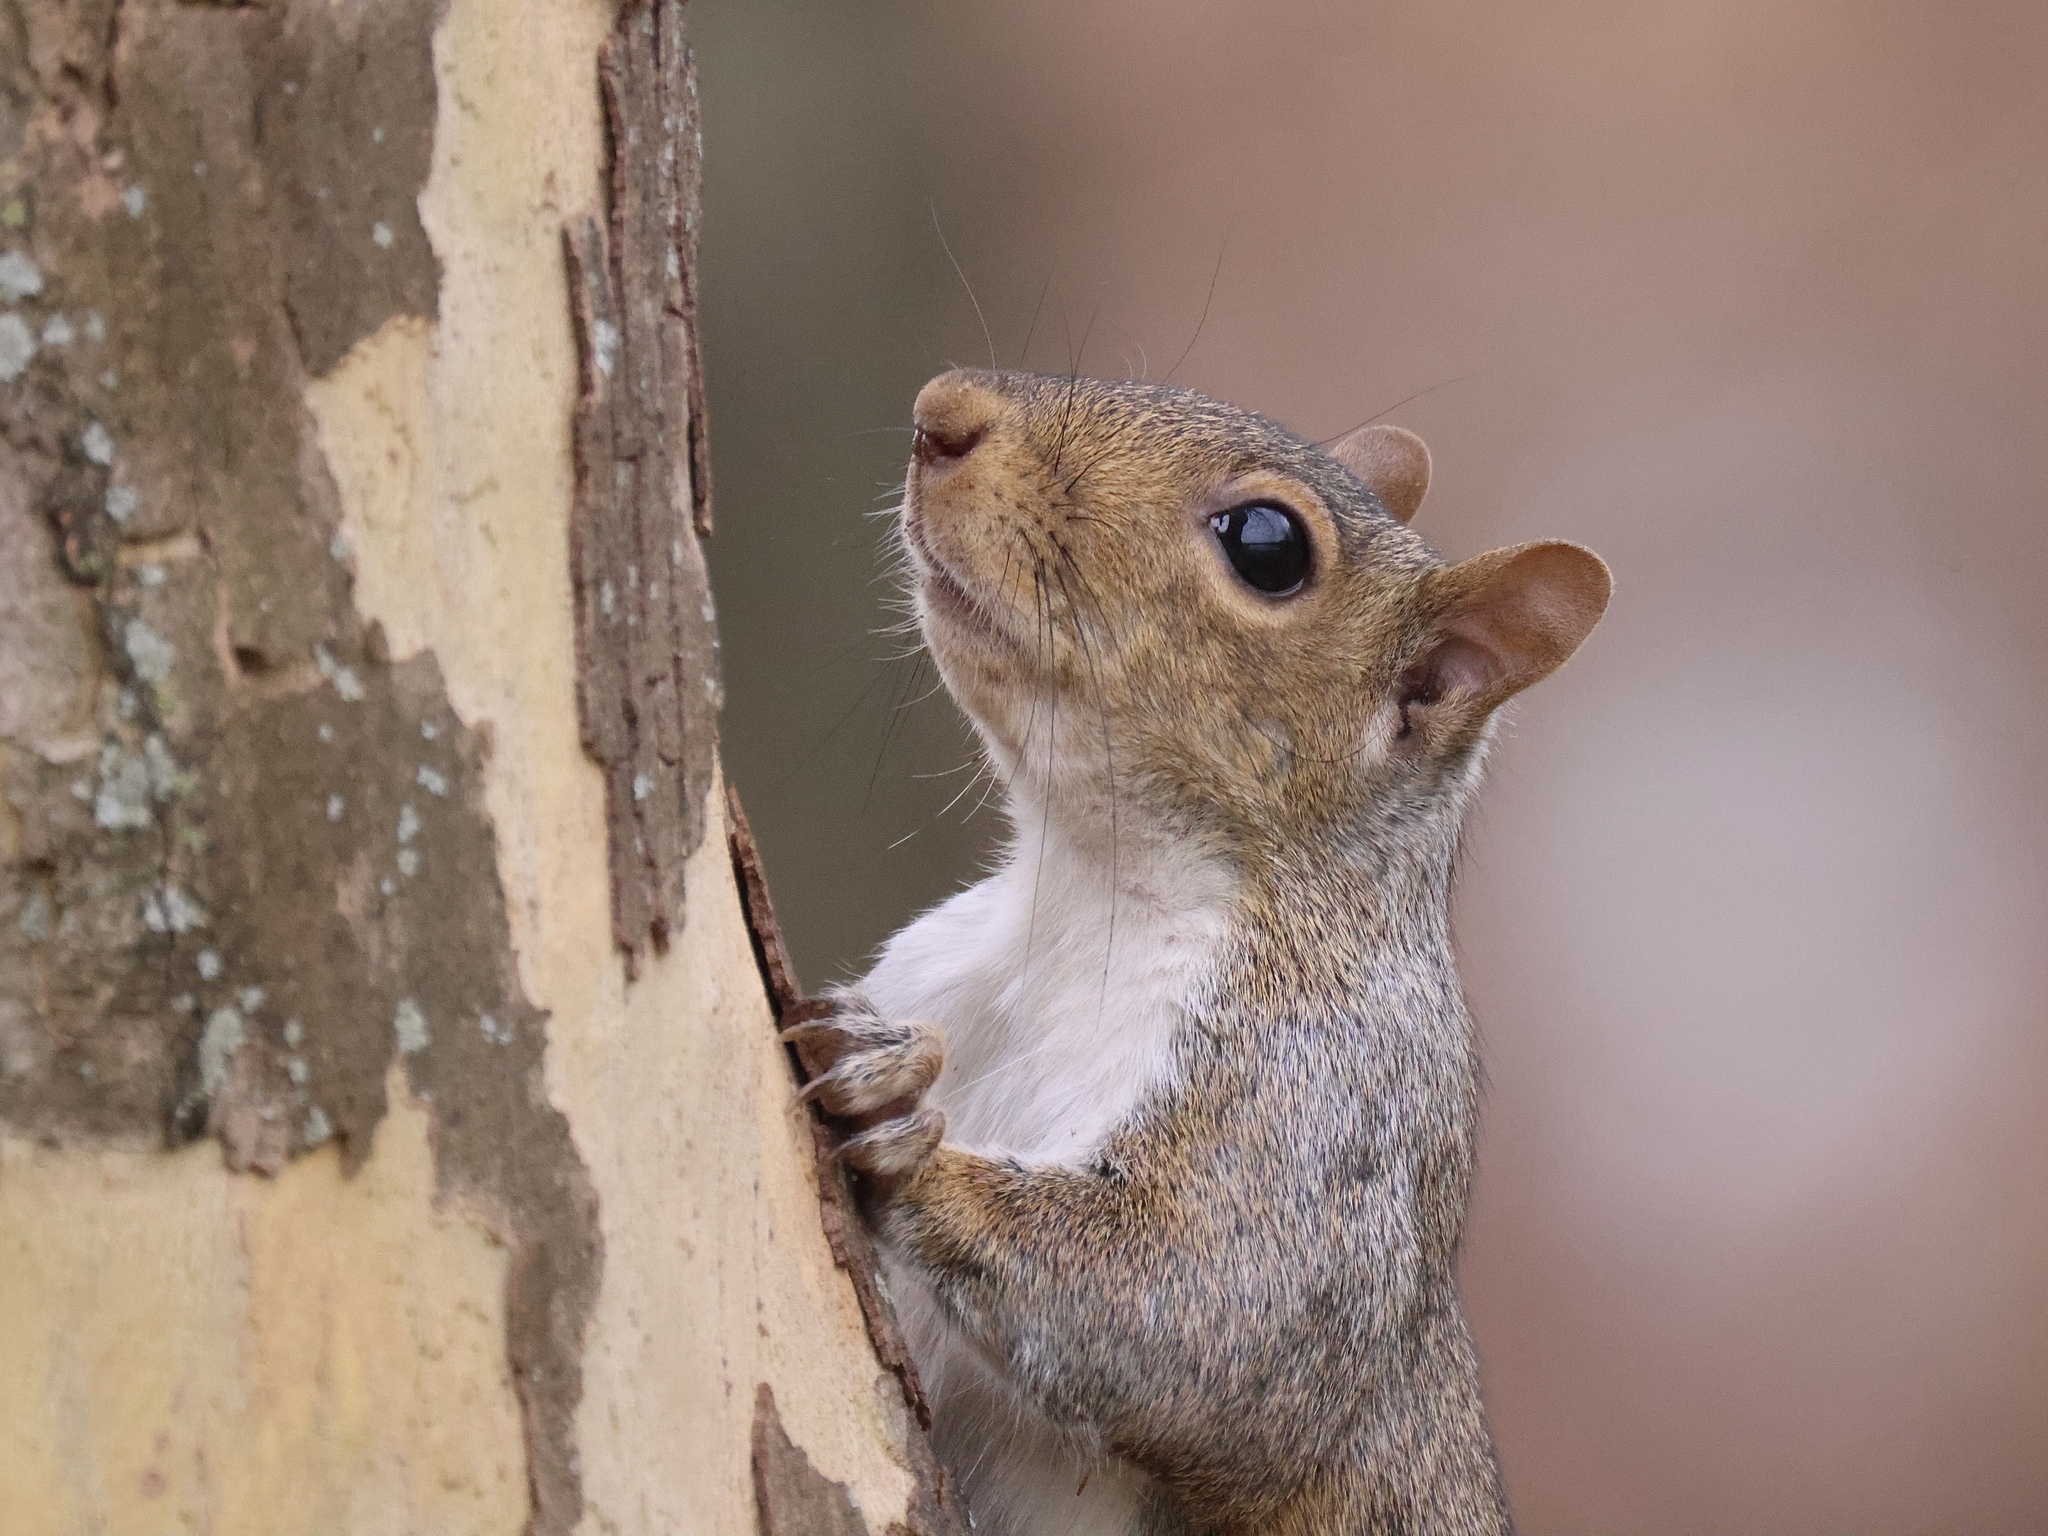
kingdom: Animalia
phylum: Chordata
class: Mammalia
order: Rodentia
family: Sciuridae
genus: Sciurus
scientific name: Sciurus carolinensis
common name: Eastern gray squirrel
